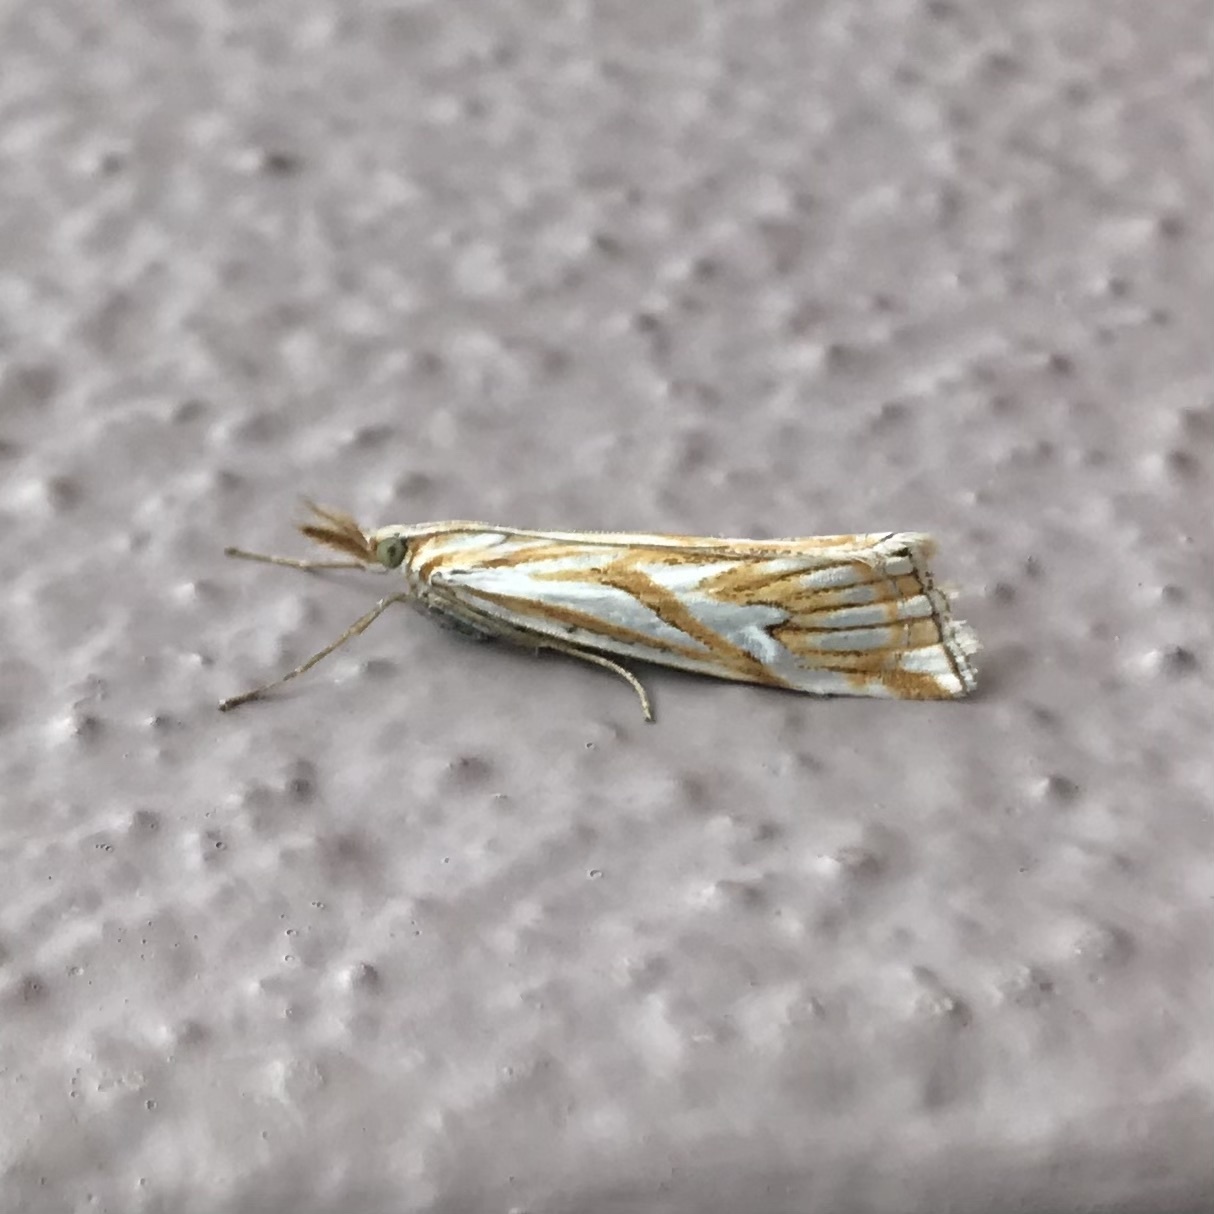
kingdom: Animalia
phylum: Arthropoda
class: Insecta
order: Lepidoptera
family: Crambidae
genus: Hednota
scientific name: Hednota pleniferellus
